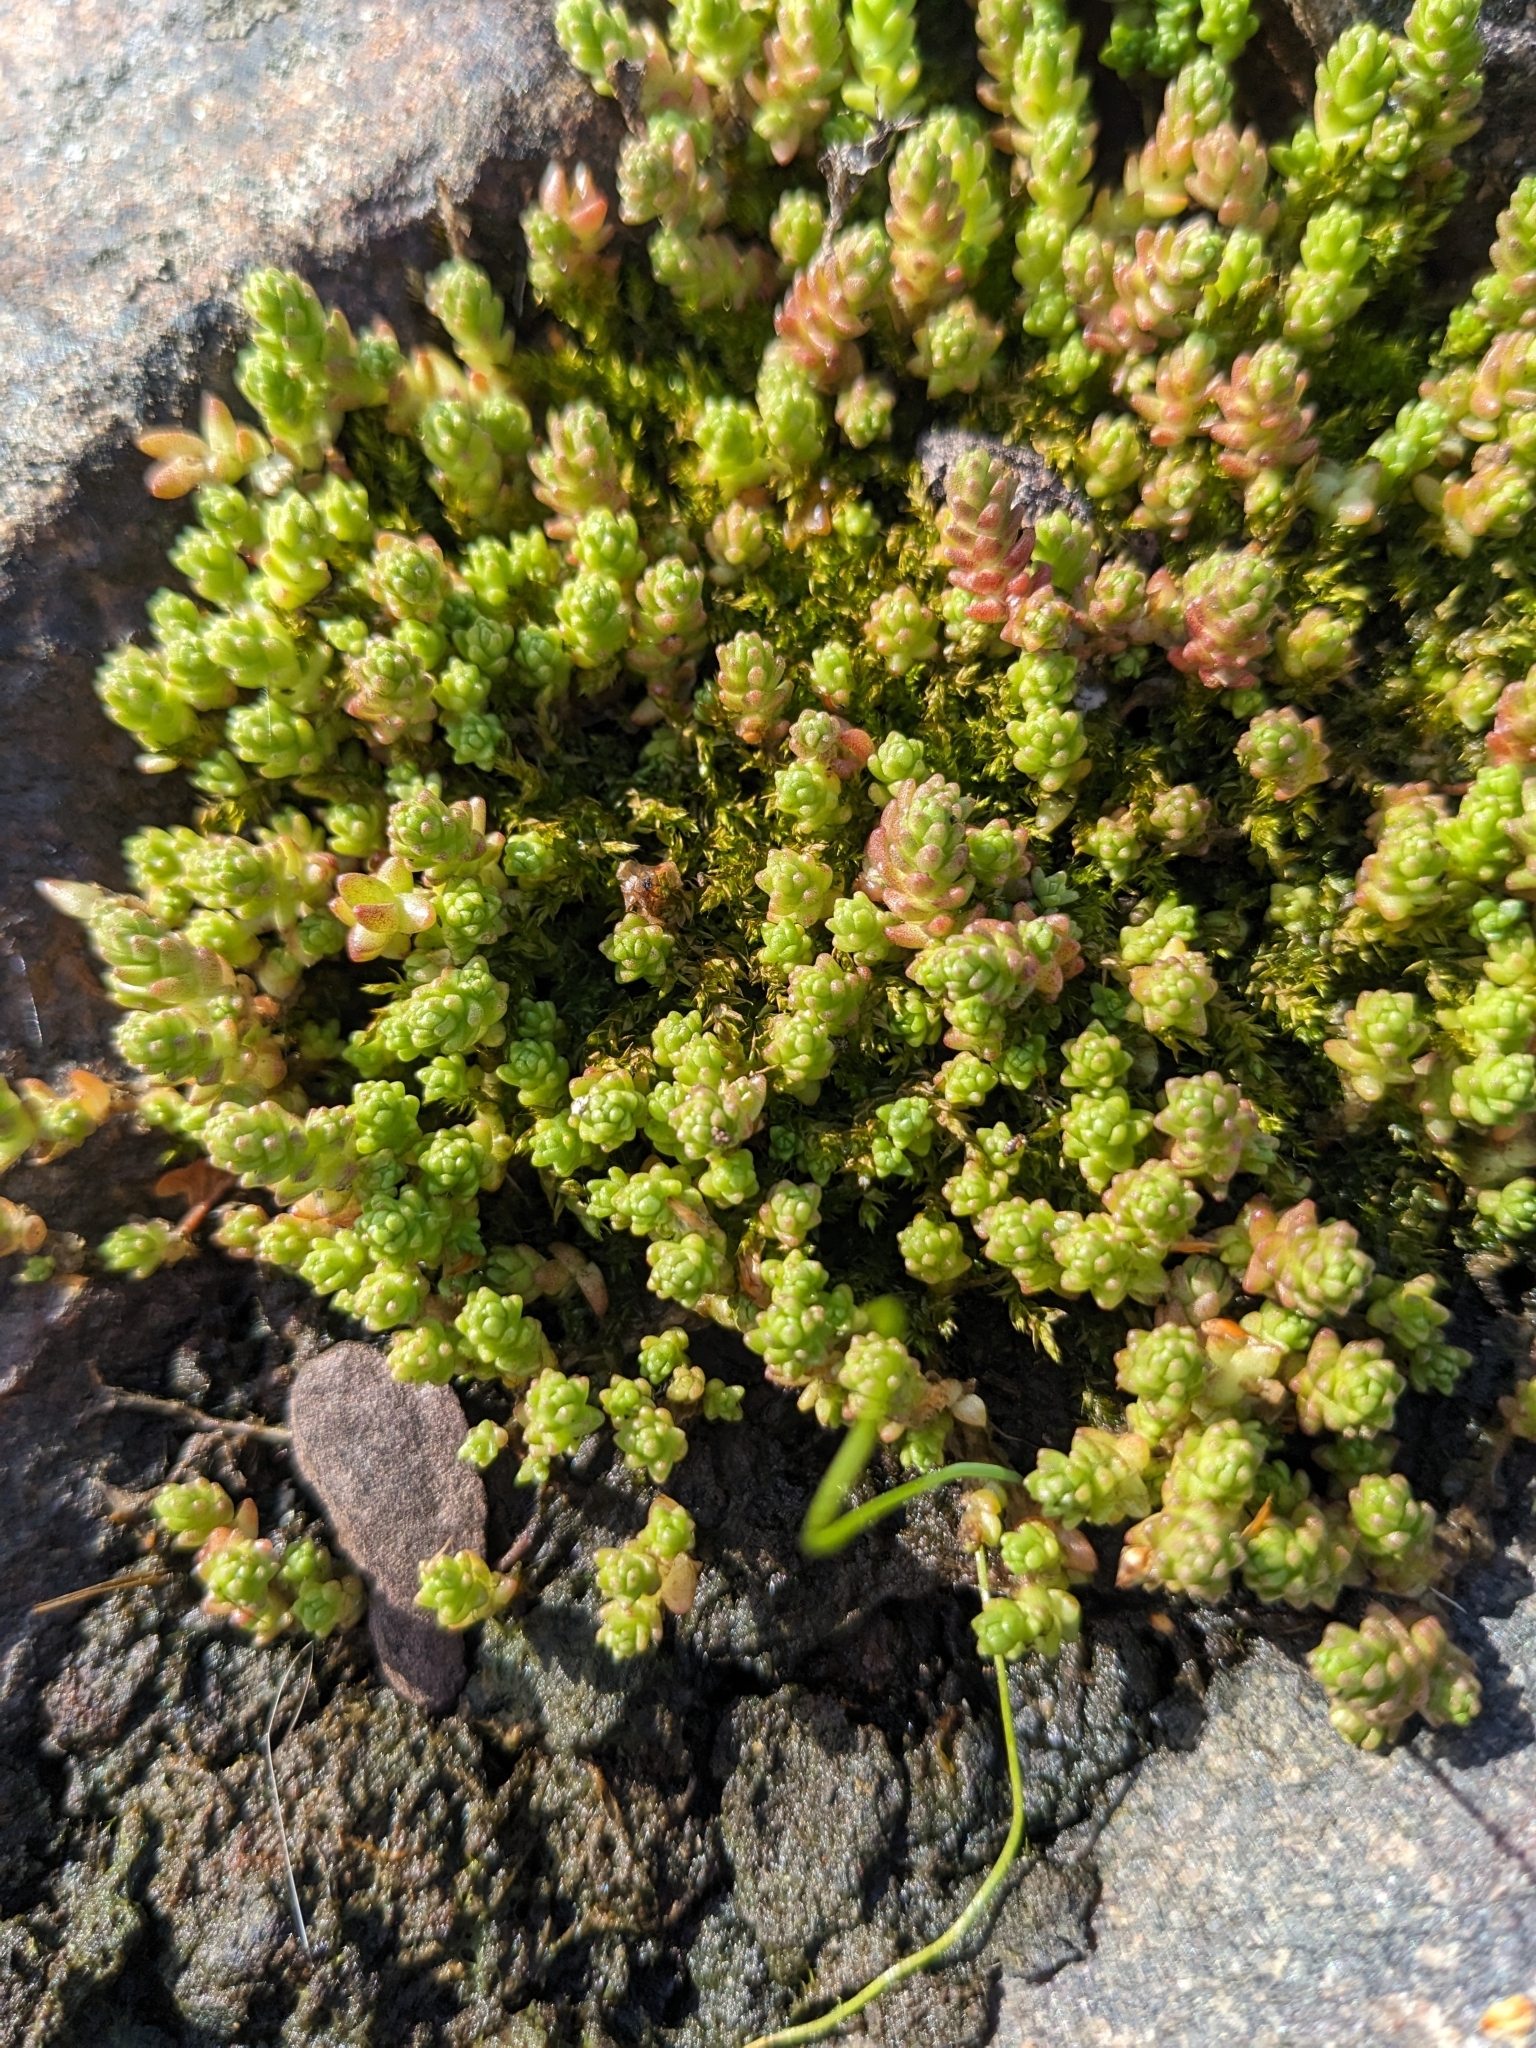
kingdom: Plantae
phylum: Tracheophyta
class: Magnoliopsida
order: Saxifragales
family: Crassulaceae
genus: Sedum
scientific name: Sedum acre
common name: Biting stonecrop
